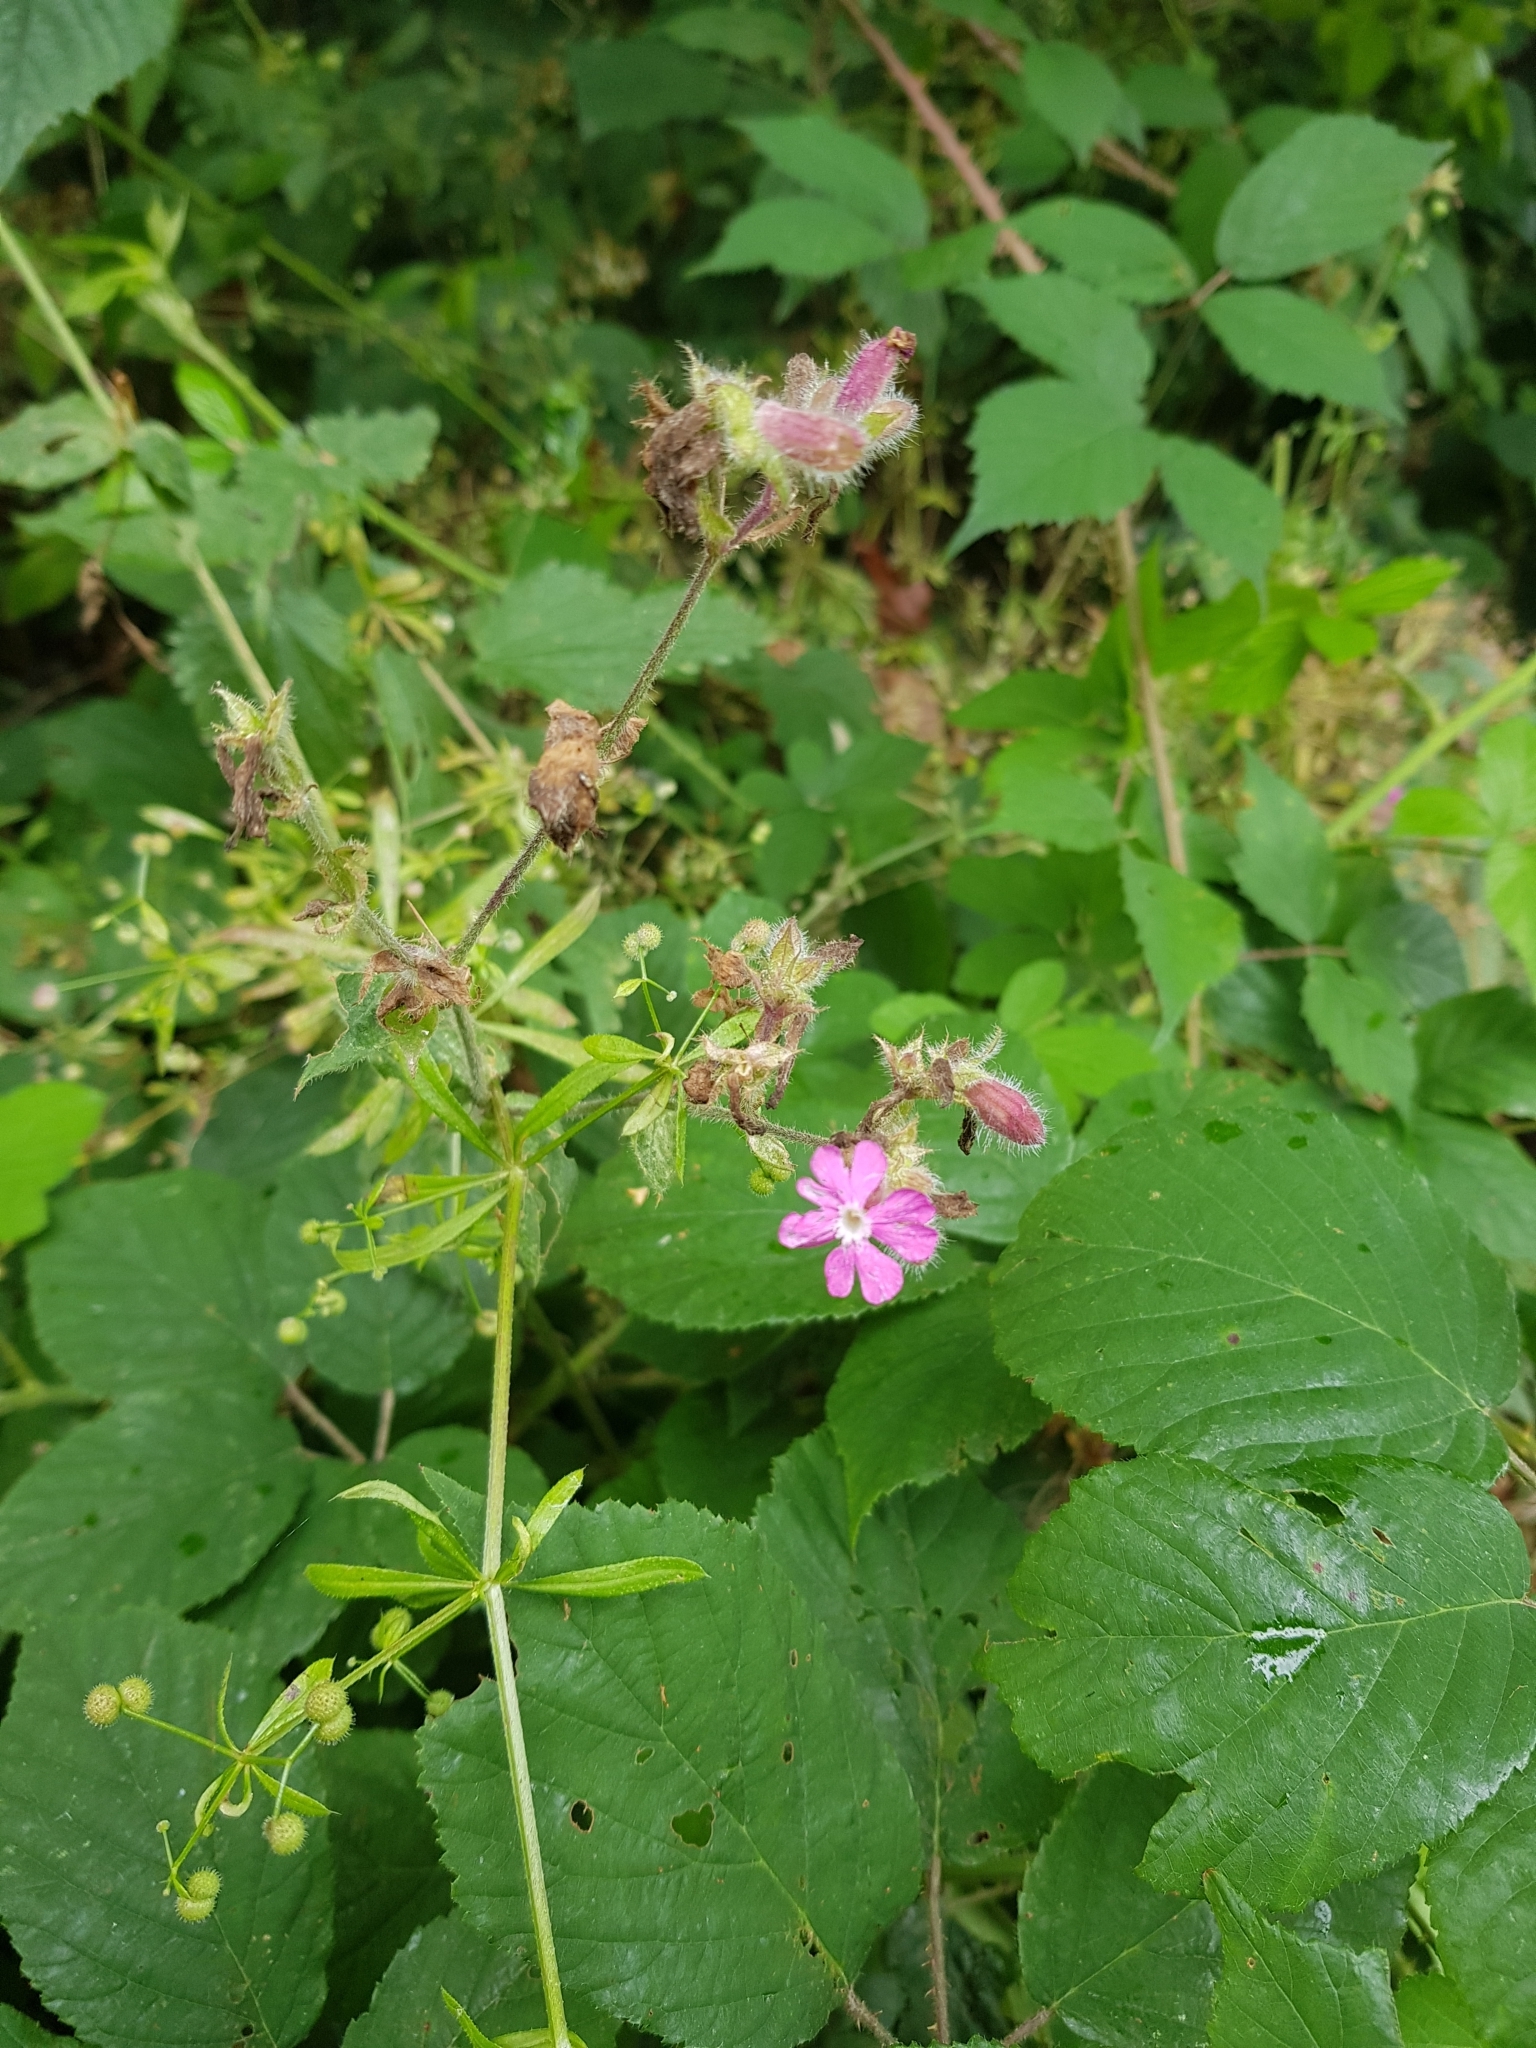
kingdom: Plantae
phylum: Tracheophyta
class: Magnoliopsida
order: Caryophyllales
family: Caryophyllaceae
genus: Silene
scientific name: Silene dioica
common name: Red campion
